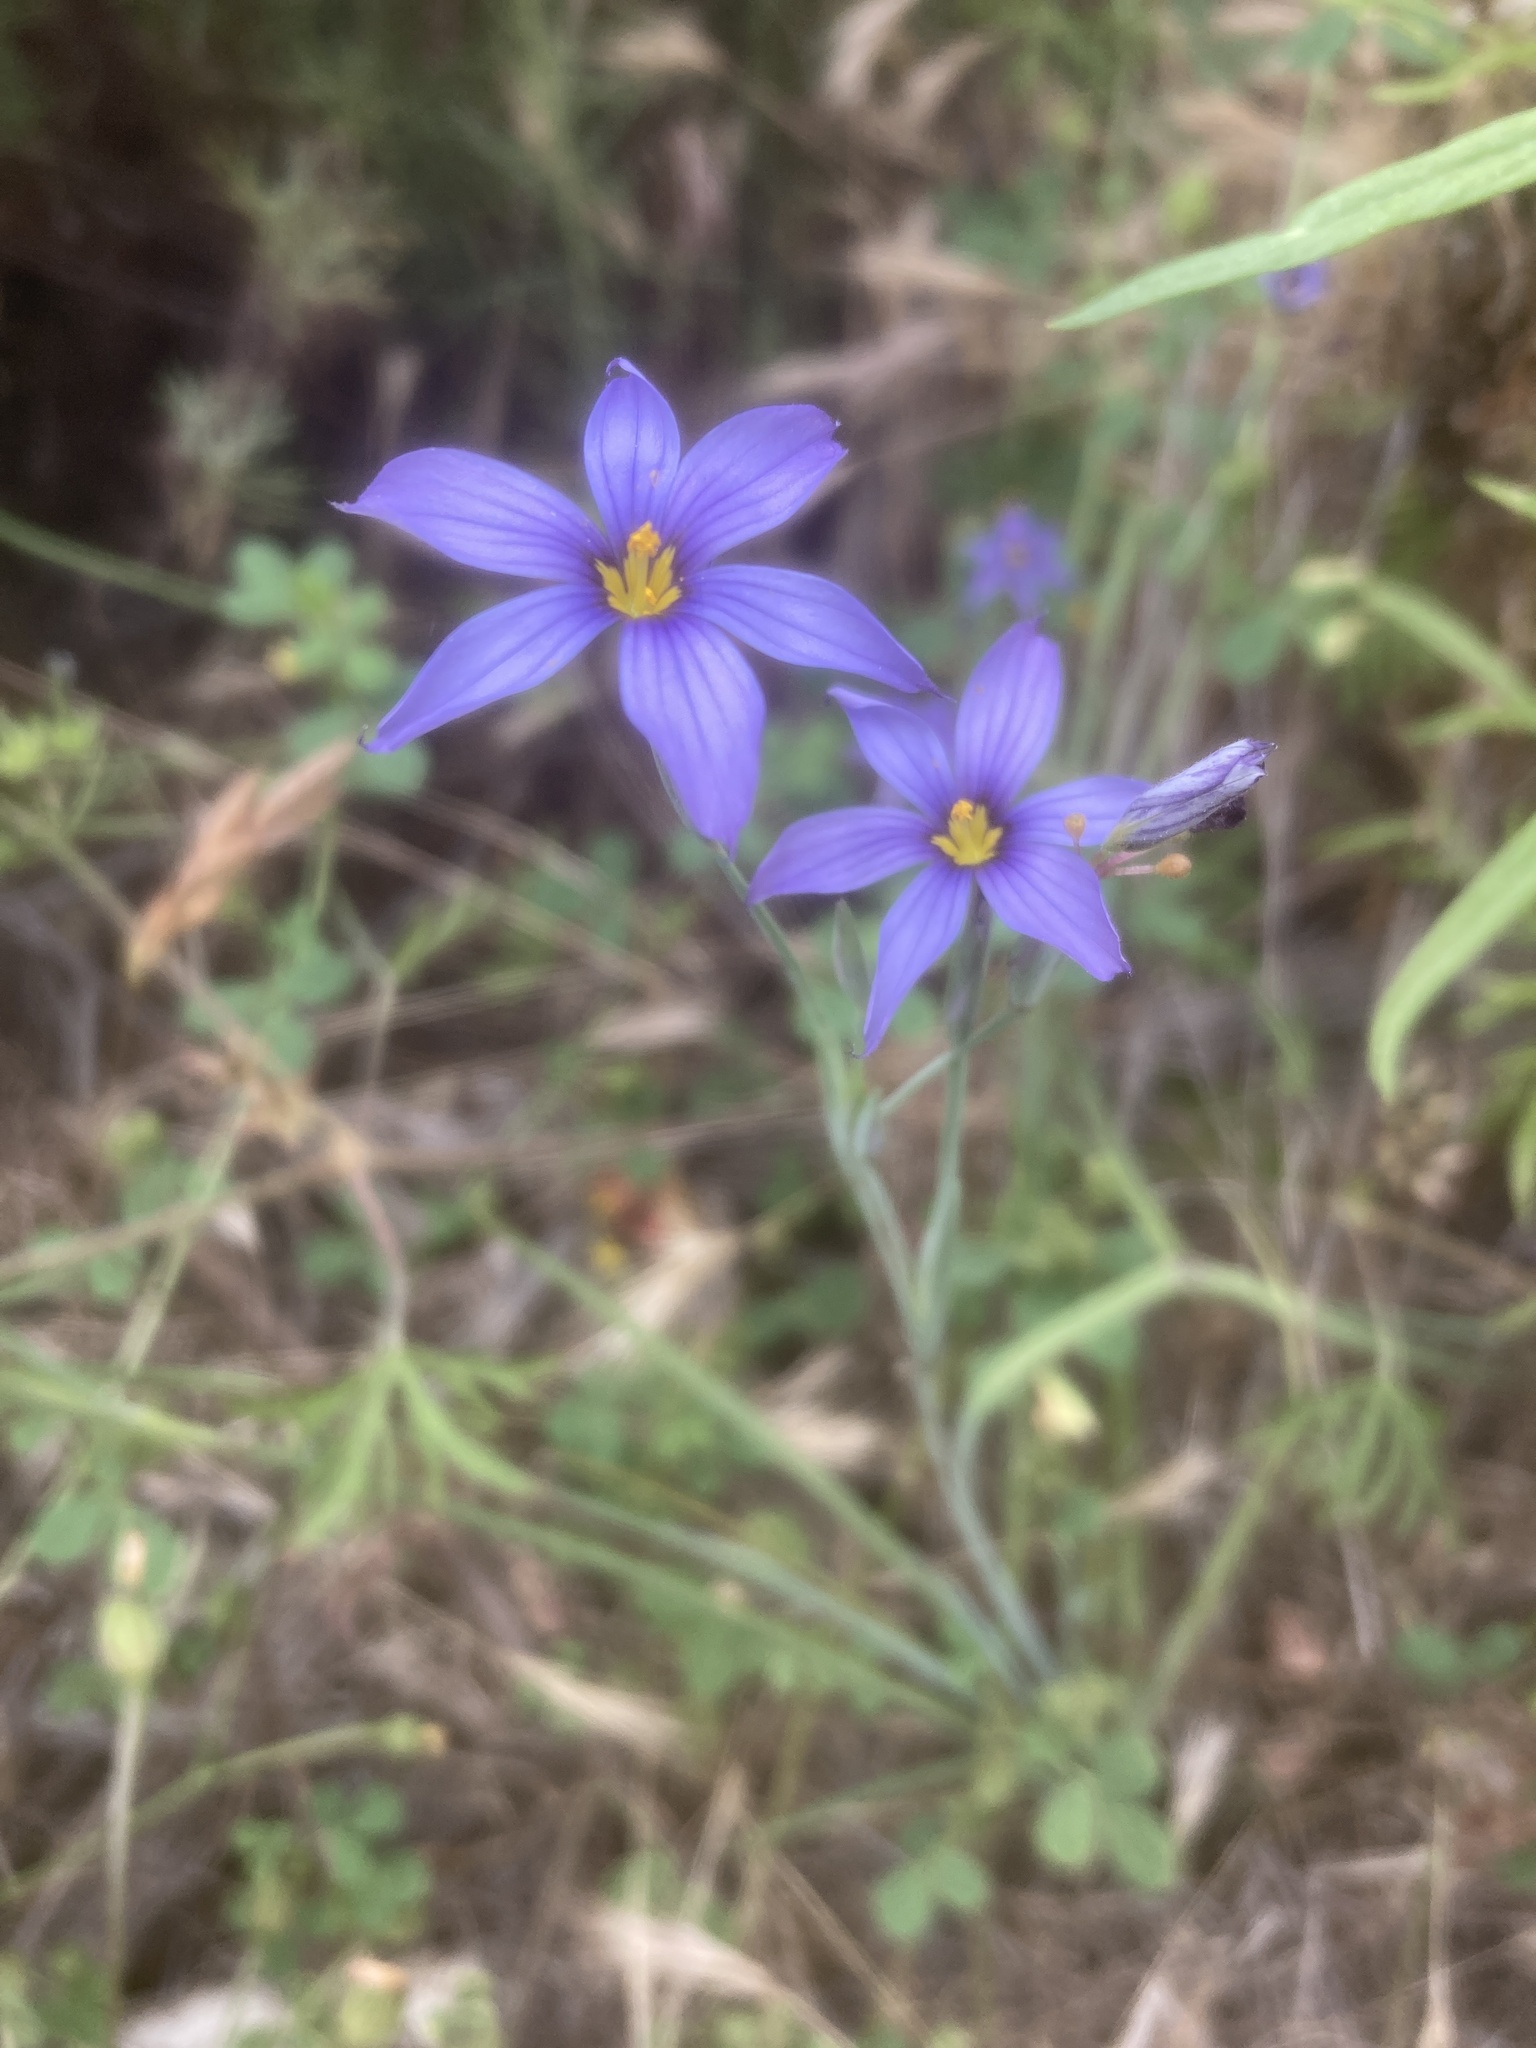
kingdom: Plantae
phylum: Tracheophyta
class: Liliopsida
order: Asparagales
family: Iridaceae
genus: Sisyrinchium
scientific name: Sisyrinchium bellum
